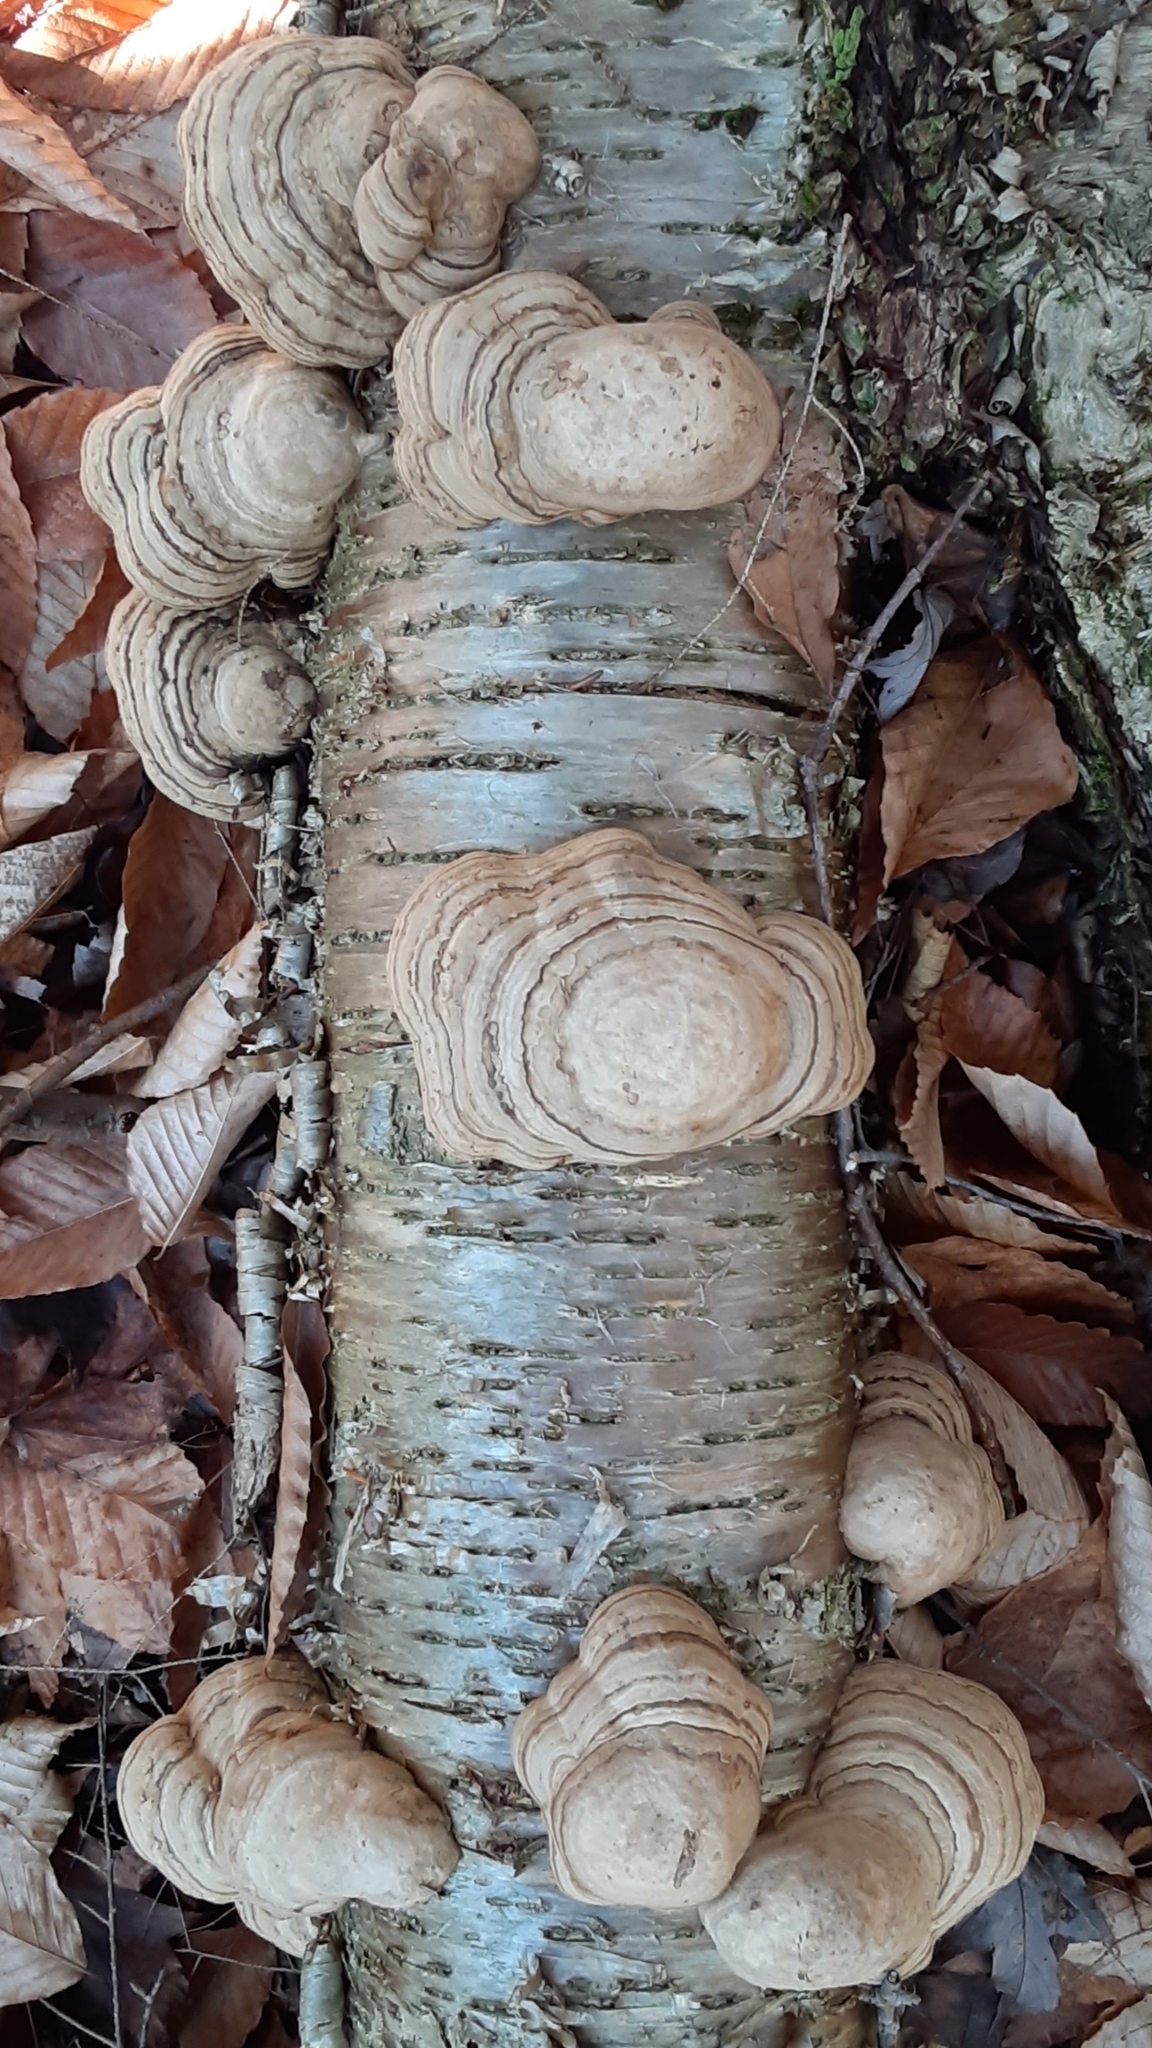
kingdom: Fungi
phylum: Basidiomycota
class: Agaricomycetes
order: Polyporales
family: Polyporaceae
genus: Fomes
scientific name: Fomes fomentarius
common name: Hoof fungus
